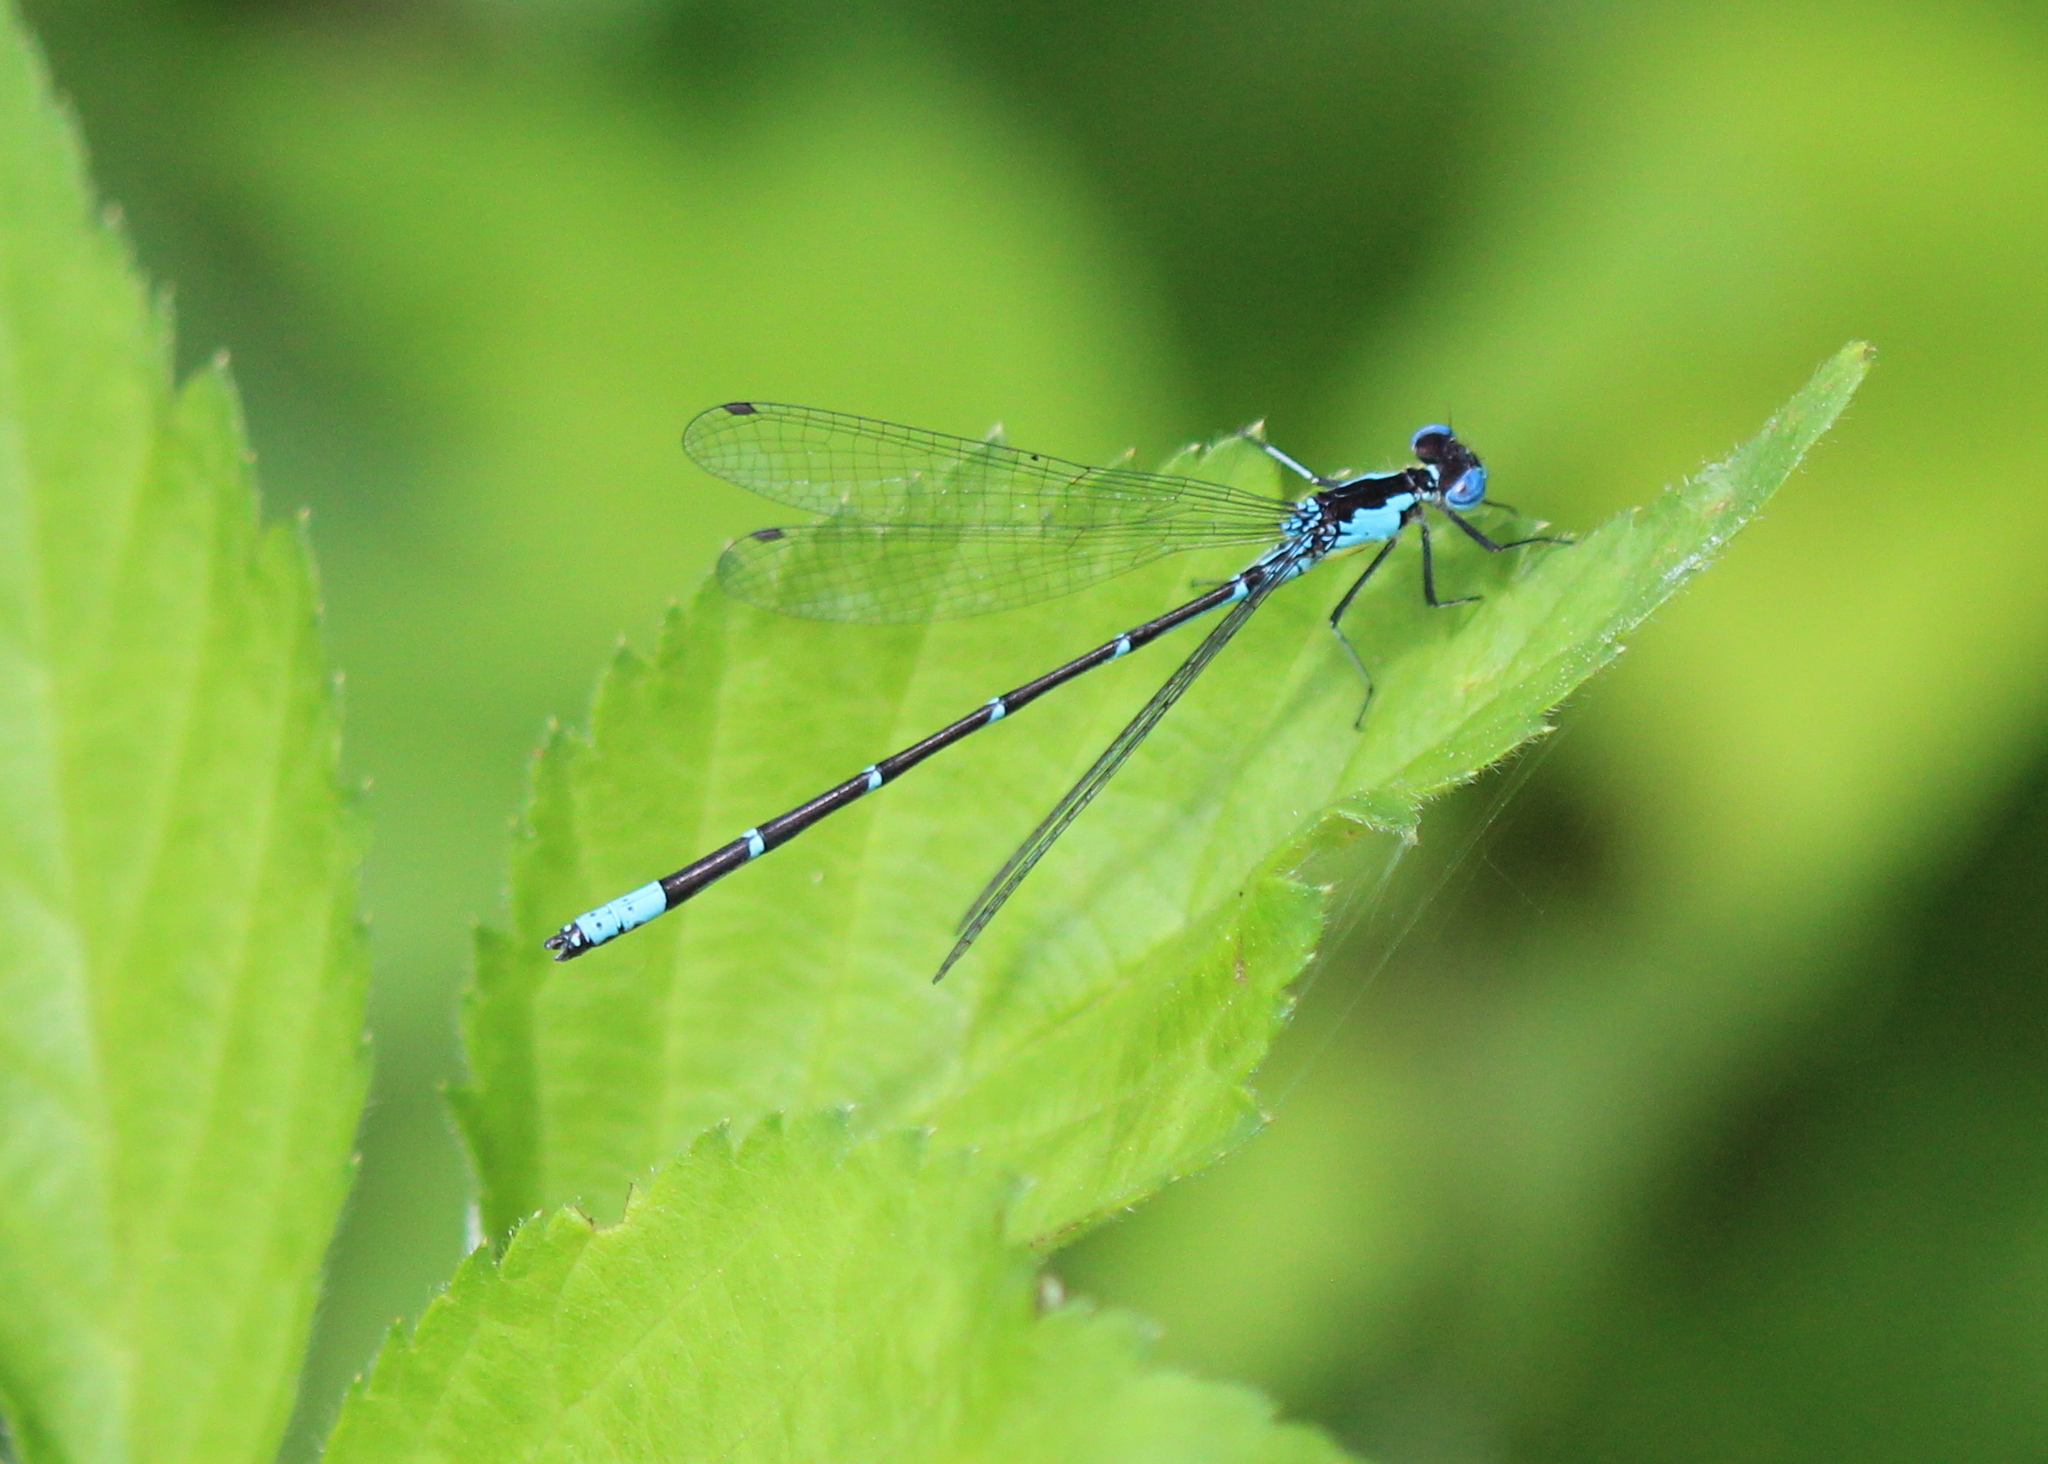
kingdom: Animalia
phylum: Arthropoda
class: Insecta
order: Odonata
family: Coenagrionidae
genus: Chromagrion
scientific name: Chromagrion conditum
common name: Aurora damsel
